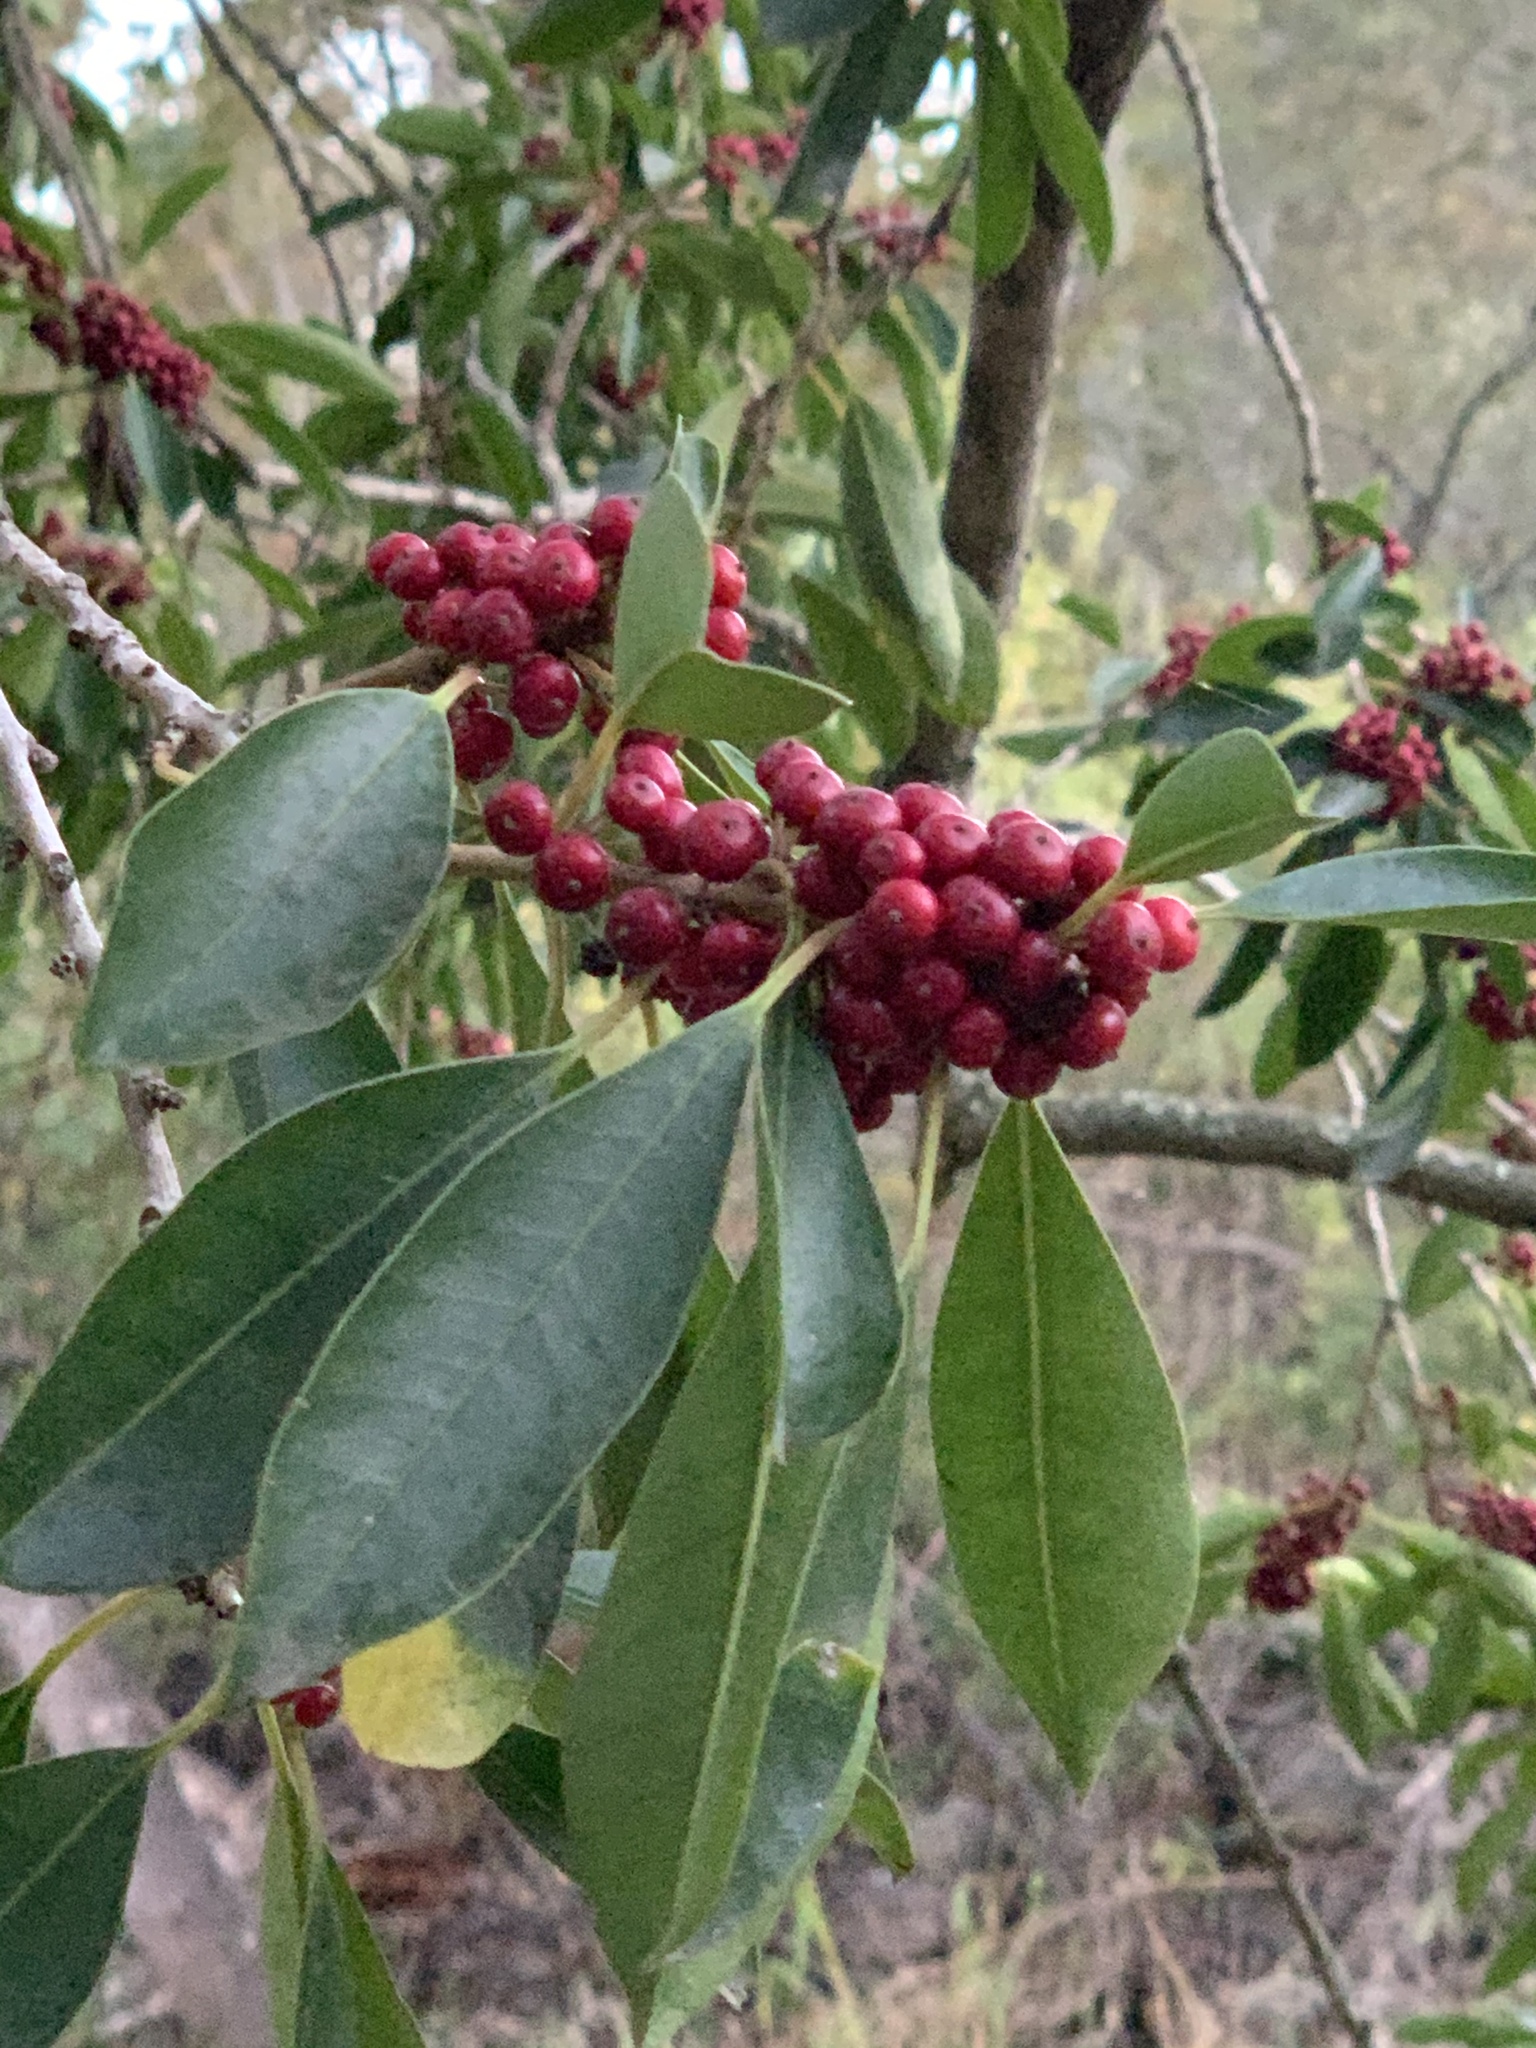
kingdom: Plantae
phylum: Tracheophyta
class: Magnoliopsida
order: Aquifoliales
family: Aquifoliaceae
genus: Ilex
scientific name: Ilex mitis
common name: African holly
